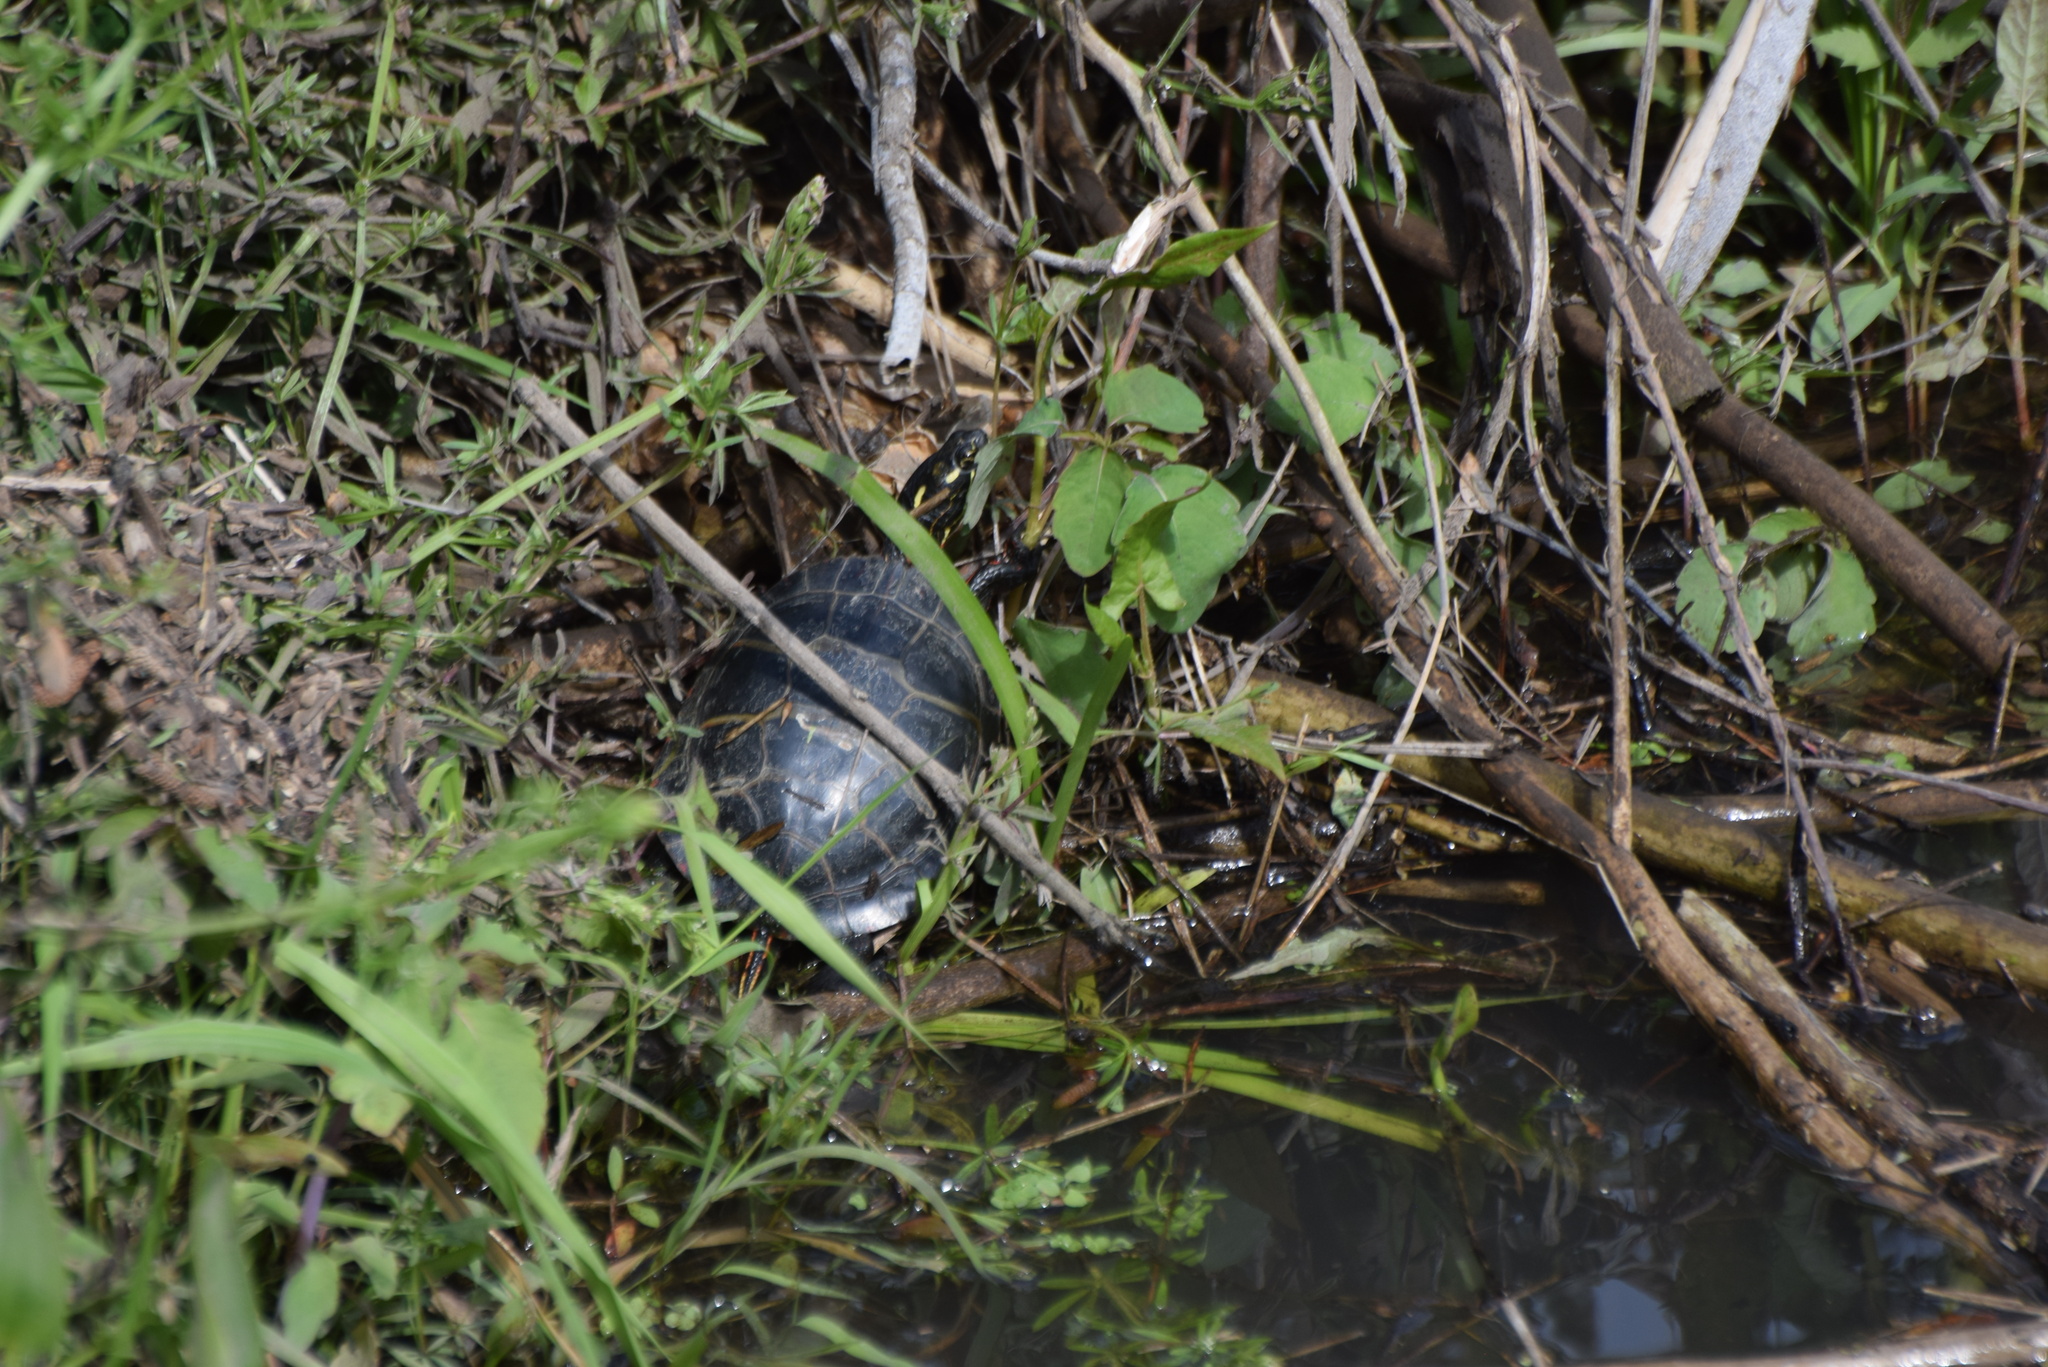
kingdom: Animalia
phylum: Chordata
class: Testudines
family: Emydidae
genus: Chrysemys
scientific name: Chrysemys picta
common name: Painted turtle
